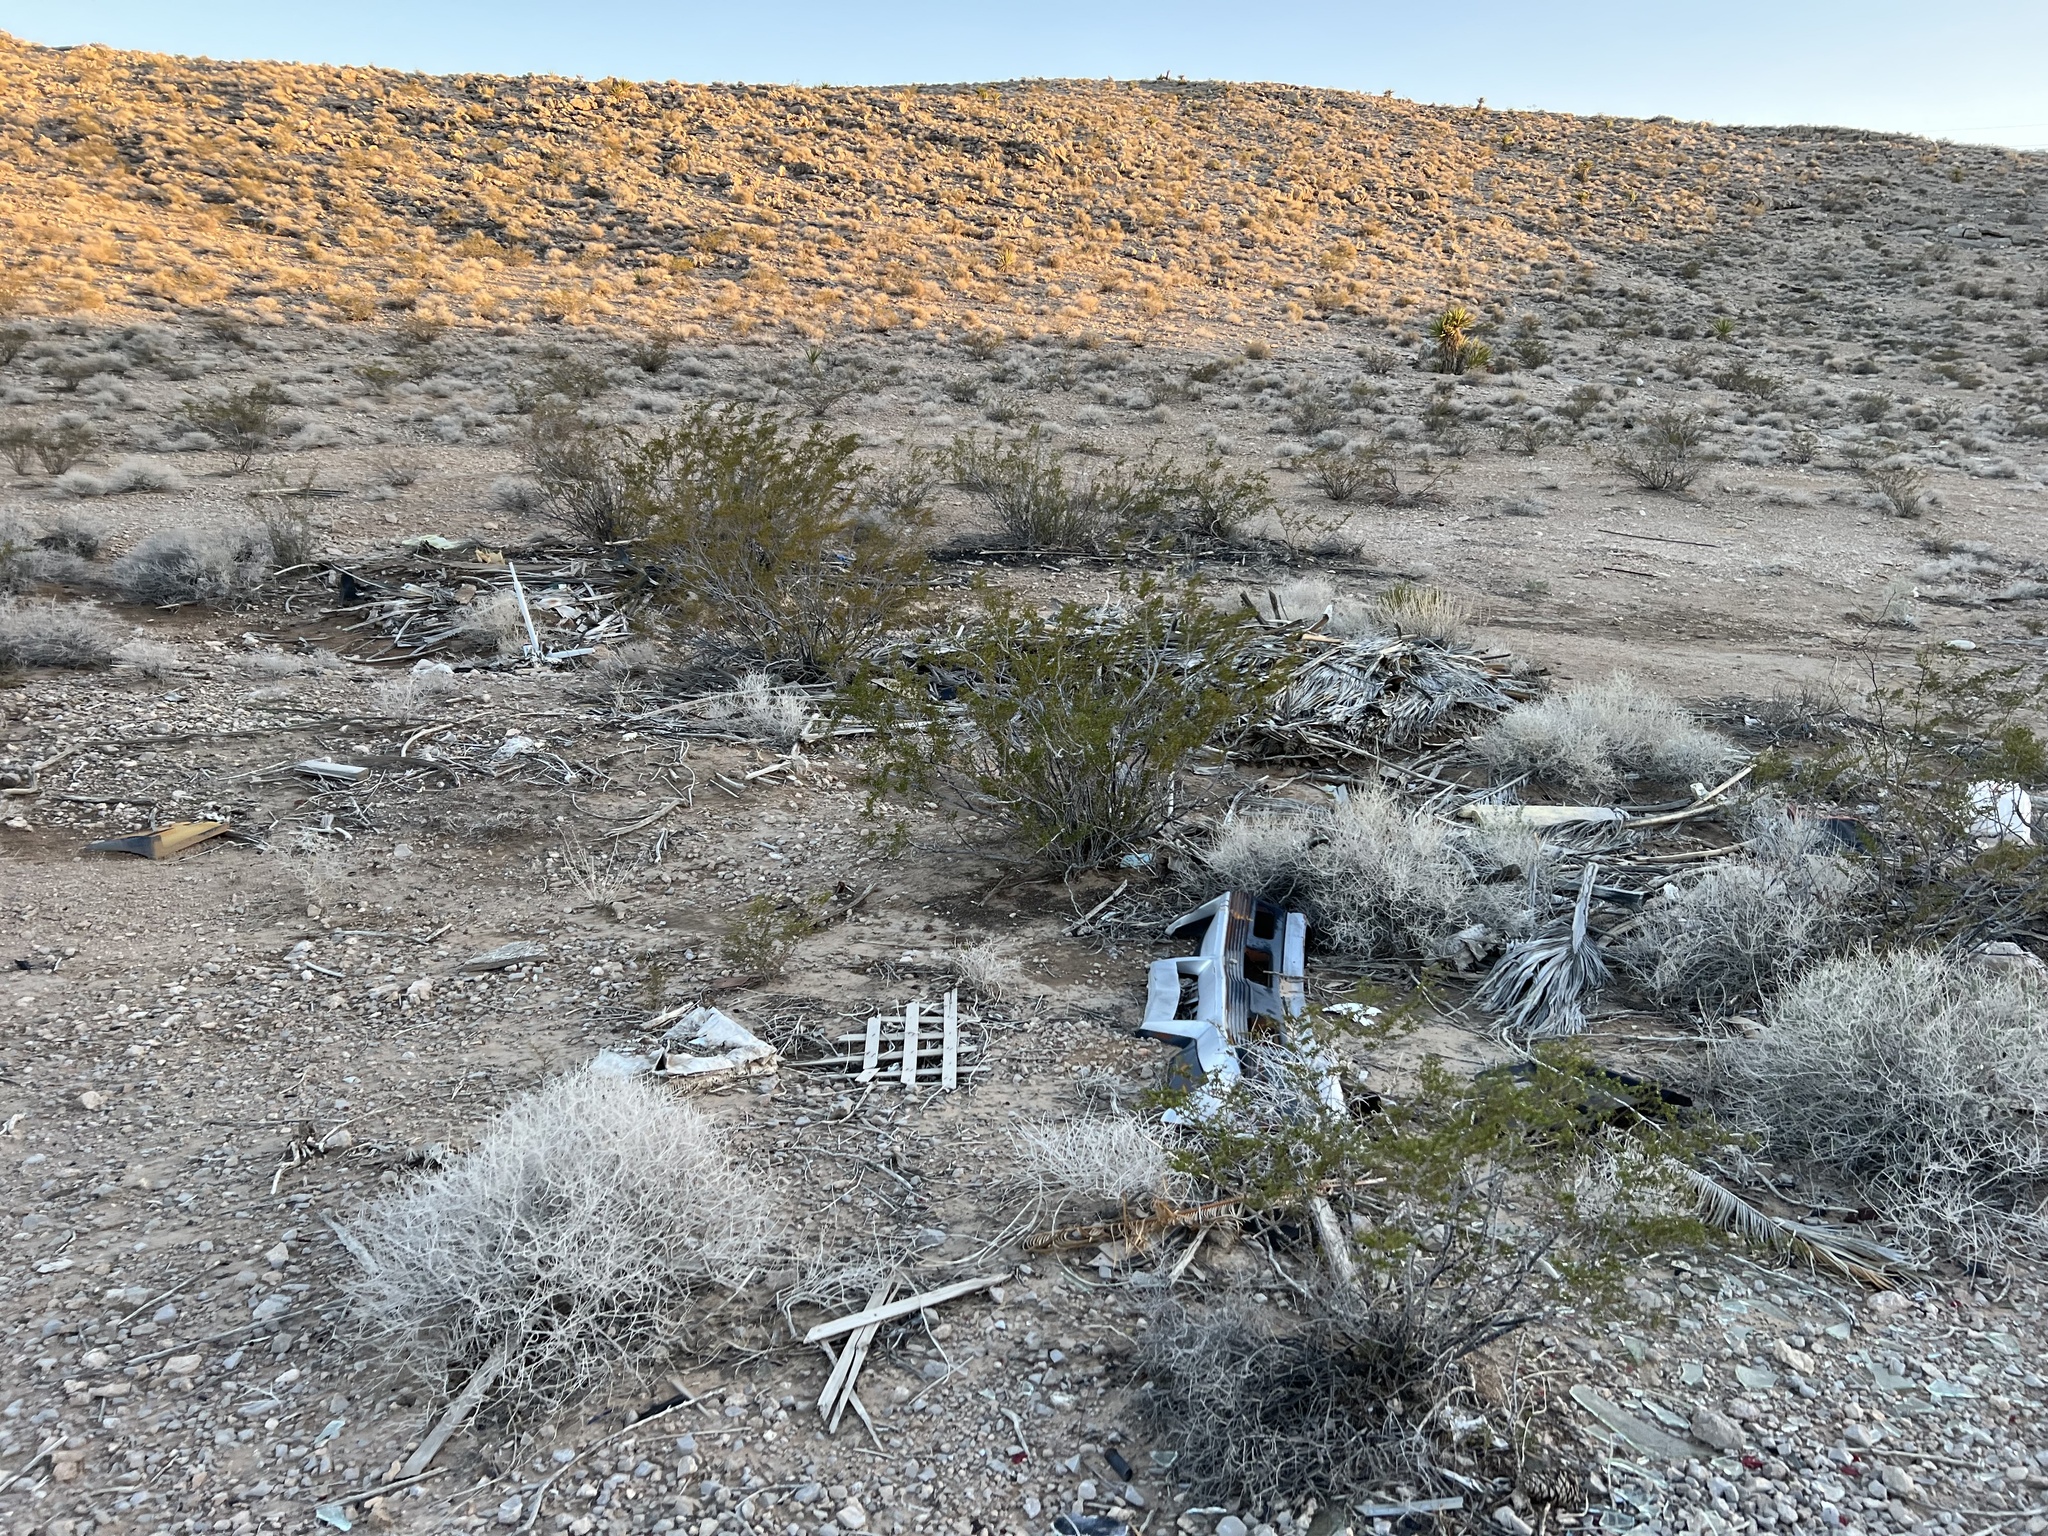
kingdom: Plantae
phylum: Tracheophyta
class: Magnoliopsida
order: Zygophyllales
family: Zygophyllaceae
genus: Larrea
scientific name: Larrea tridentata
